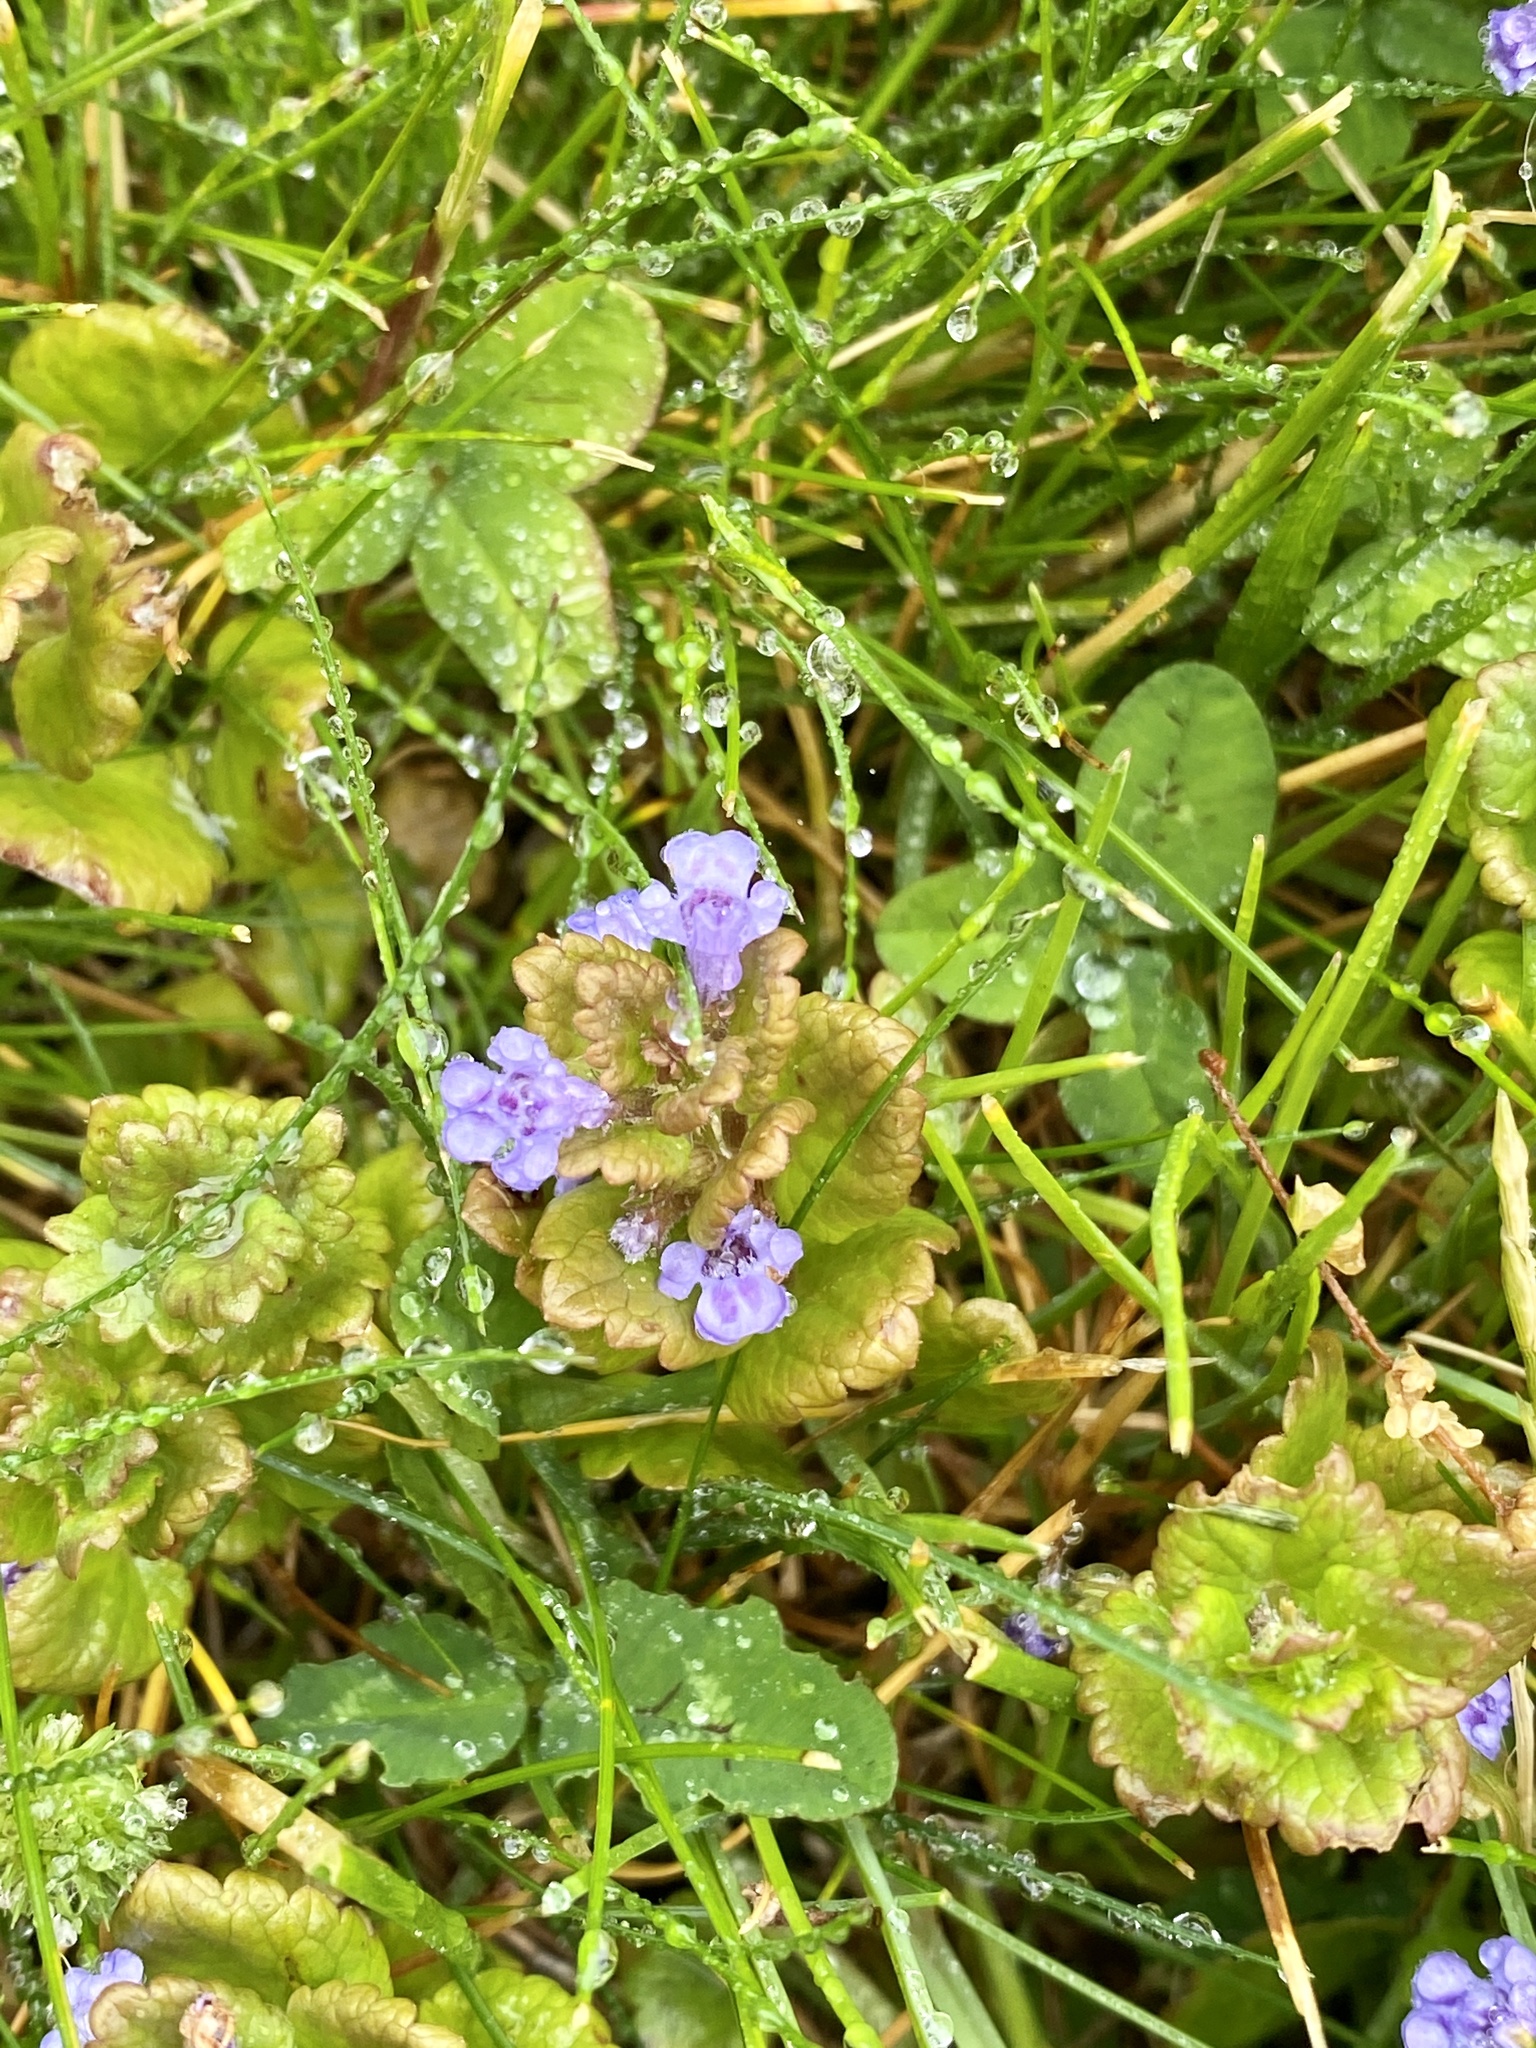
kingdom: Plantae
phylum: Tracheophyta
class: Magnoliopsida
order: Lamiales
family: Lamiaceae
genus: Glechoma
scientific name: Glechoma hederacea
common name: Ground ivy
